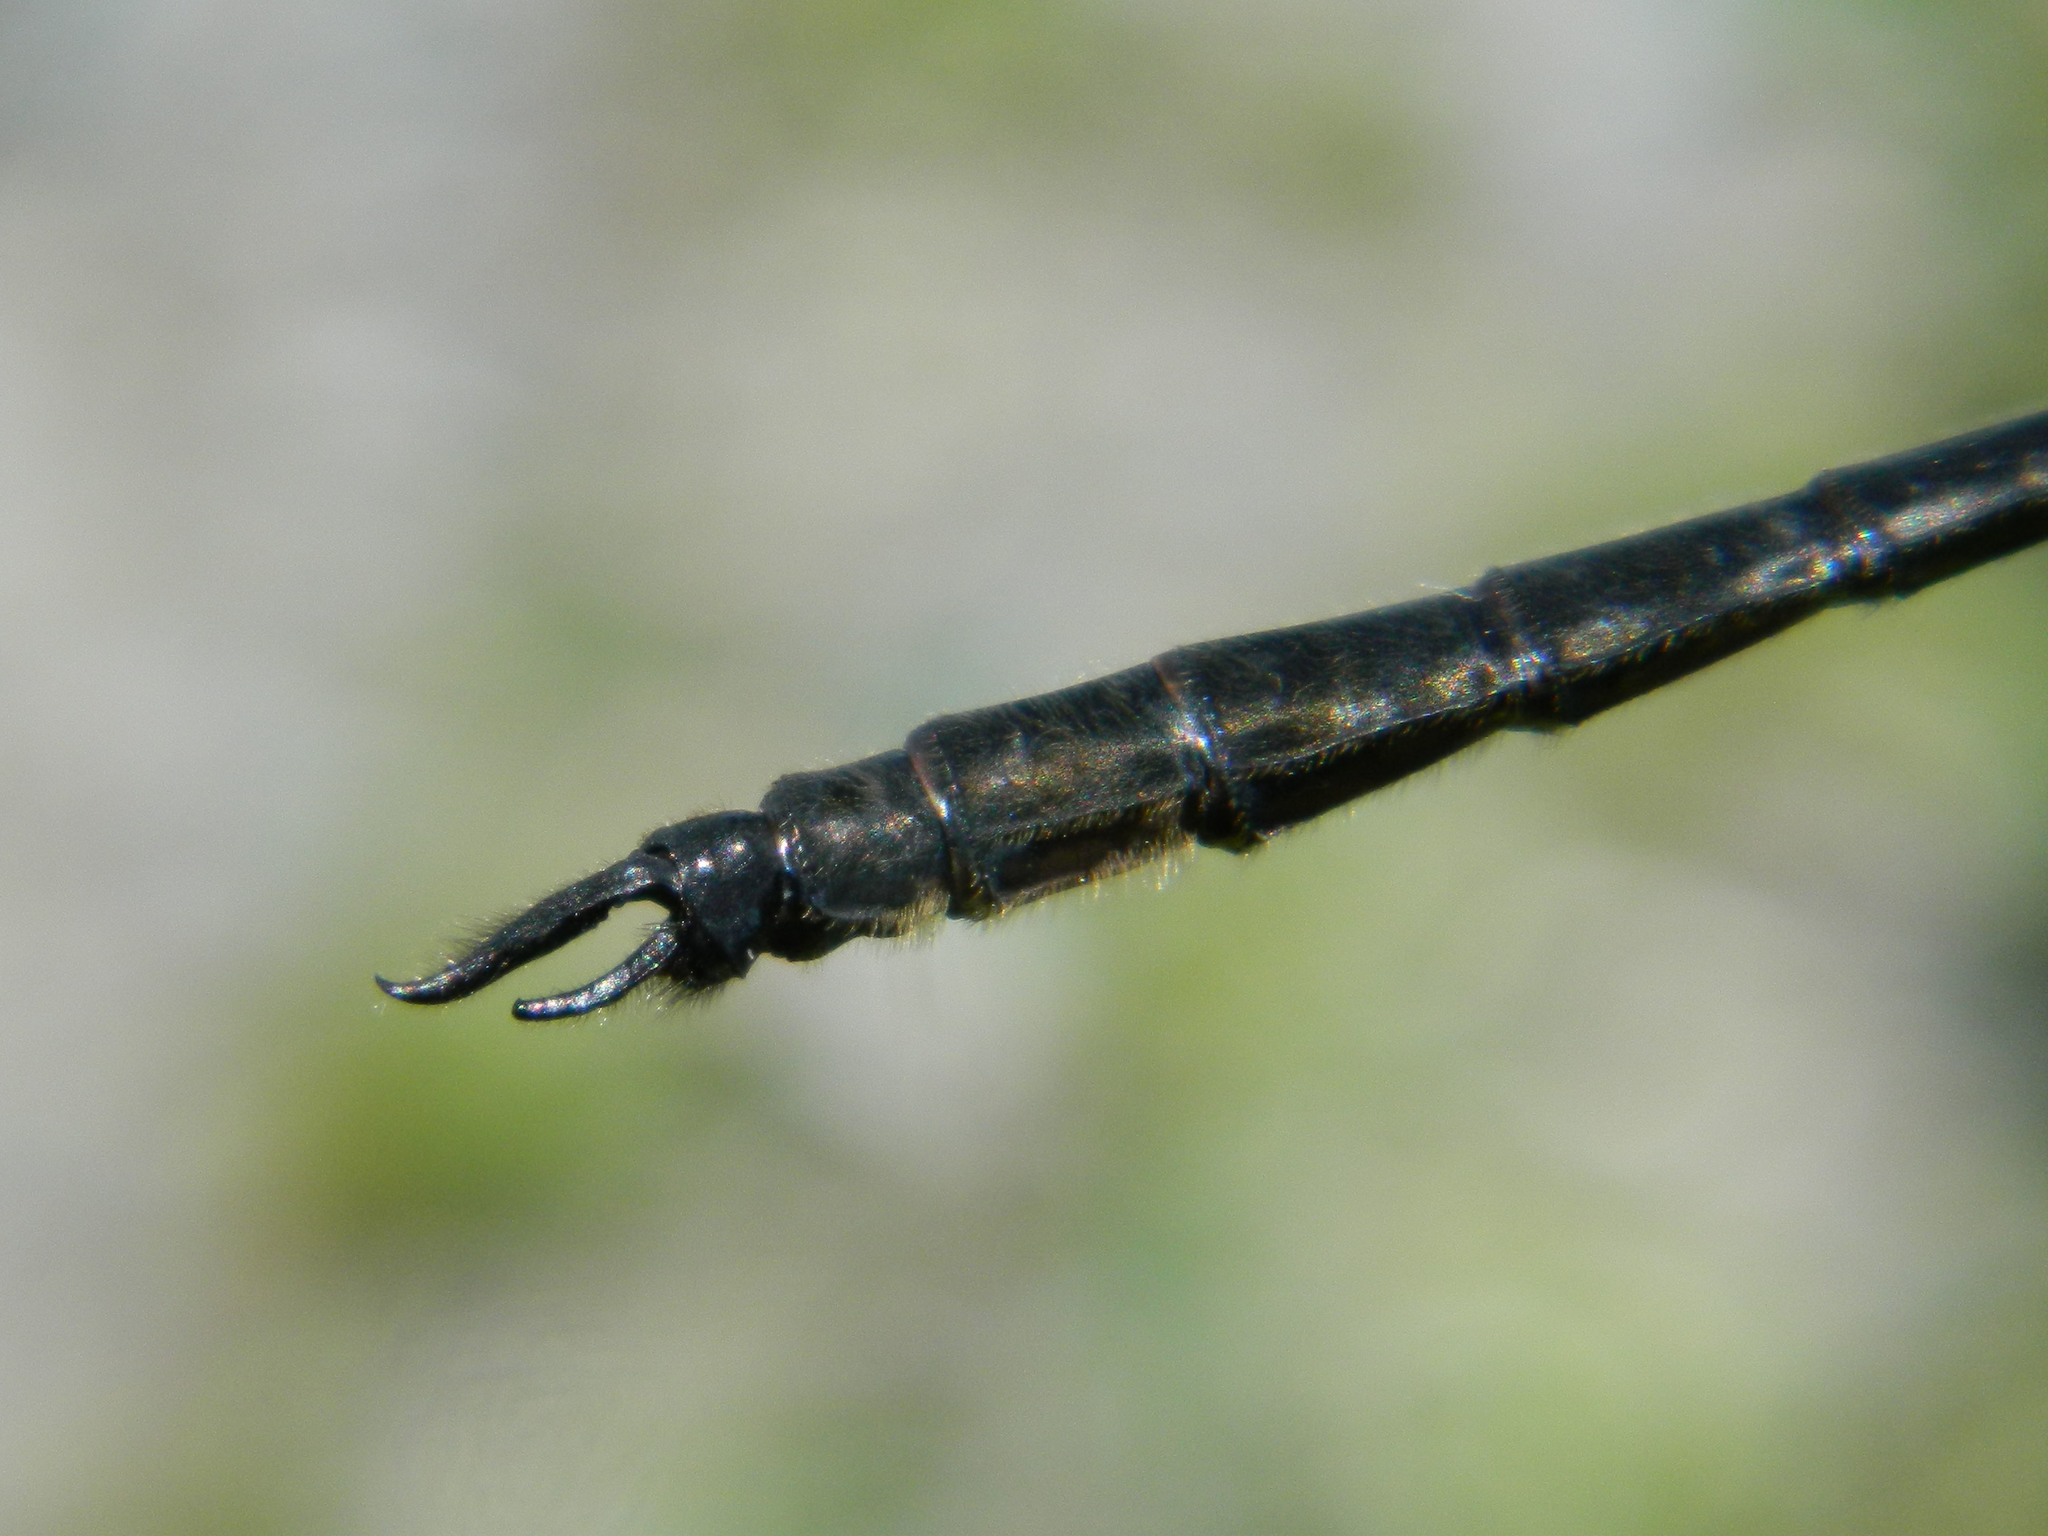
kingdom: Animalia
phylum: Arthropoda
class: Insecta
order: Odonata
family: Corduliidae
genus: Somatochlora
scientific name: Somatochlora elongata
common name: Ski-tipped emerald
